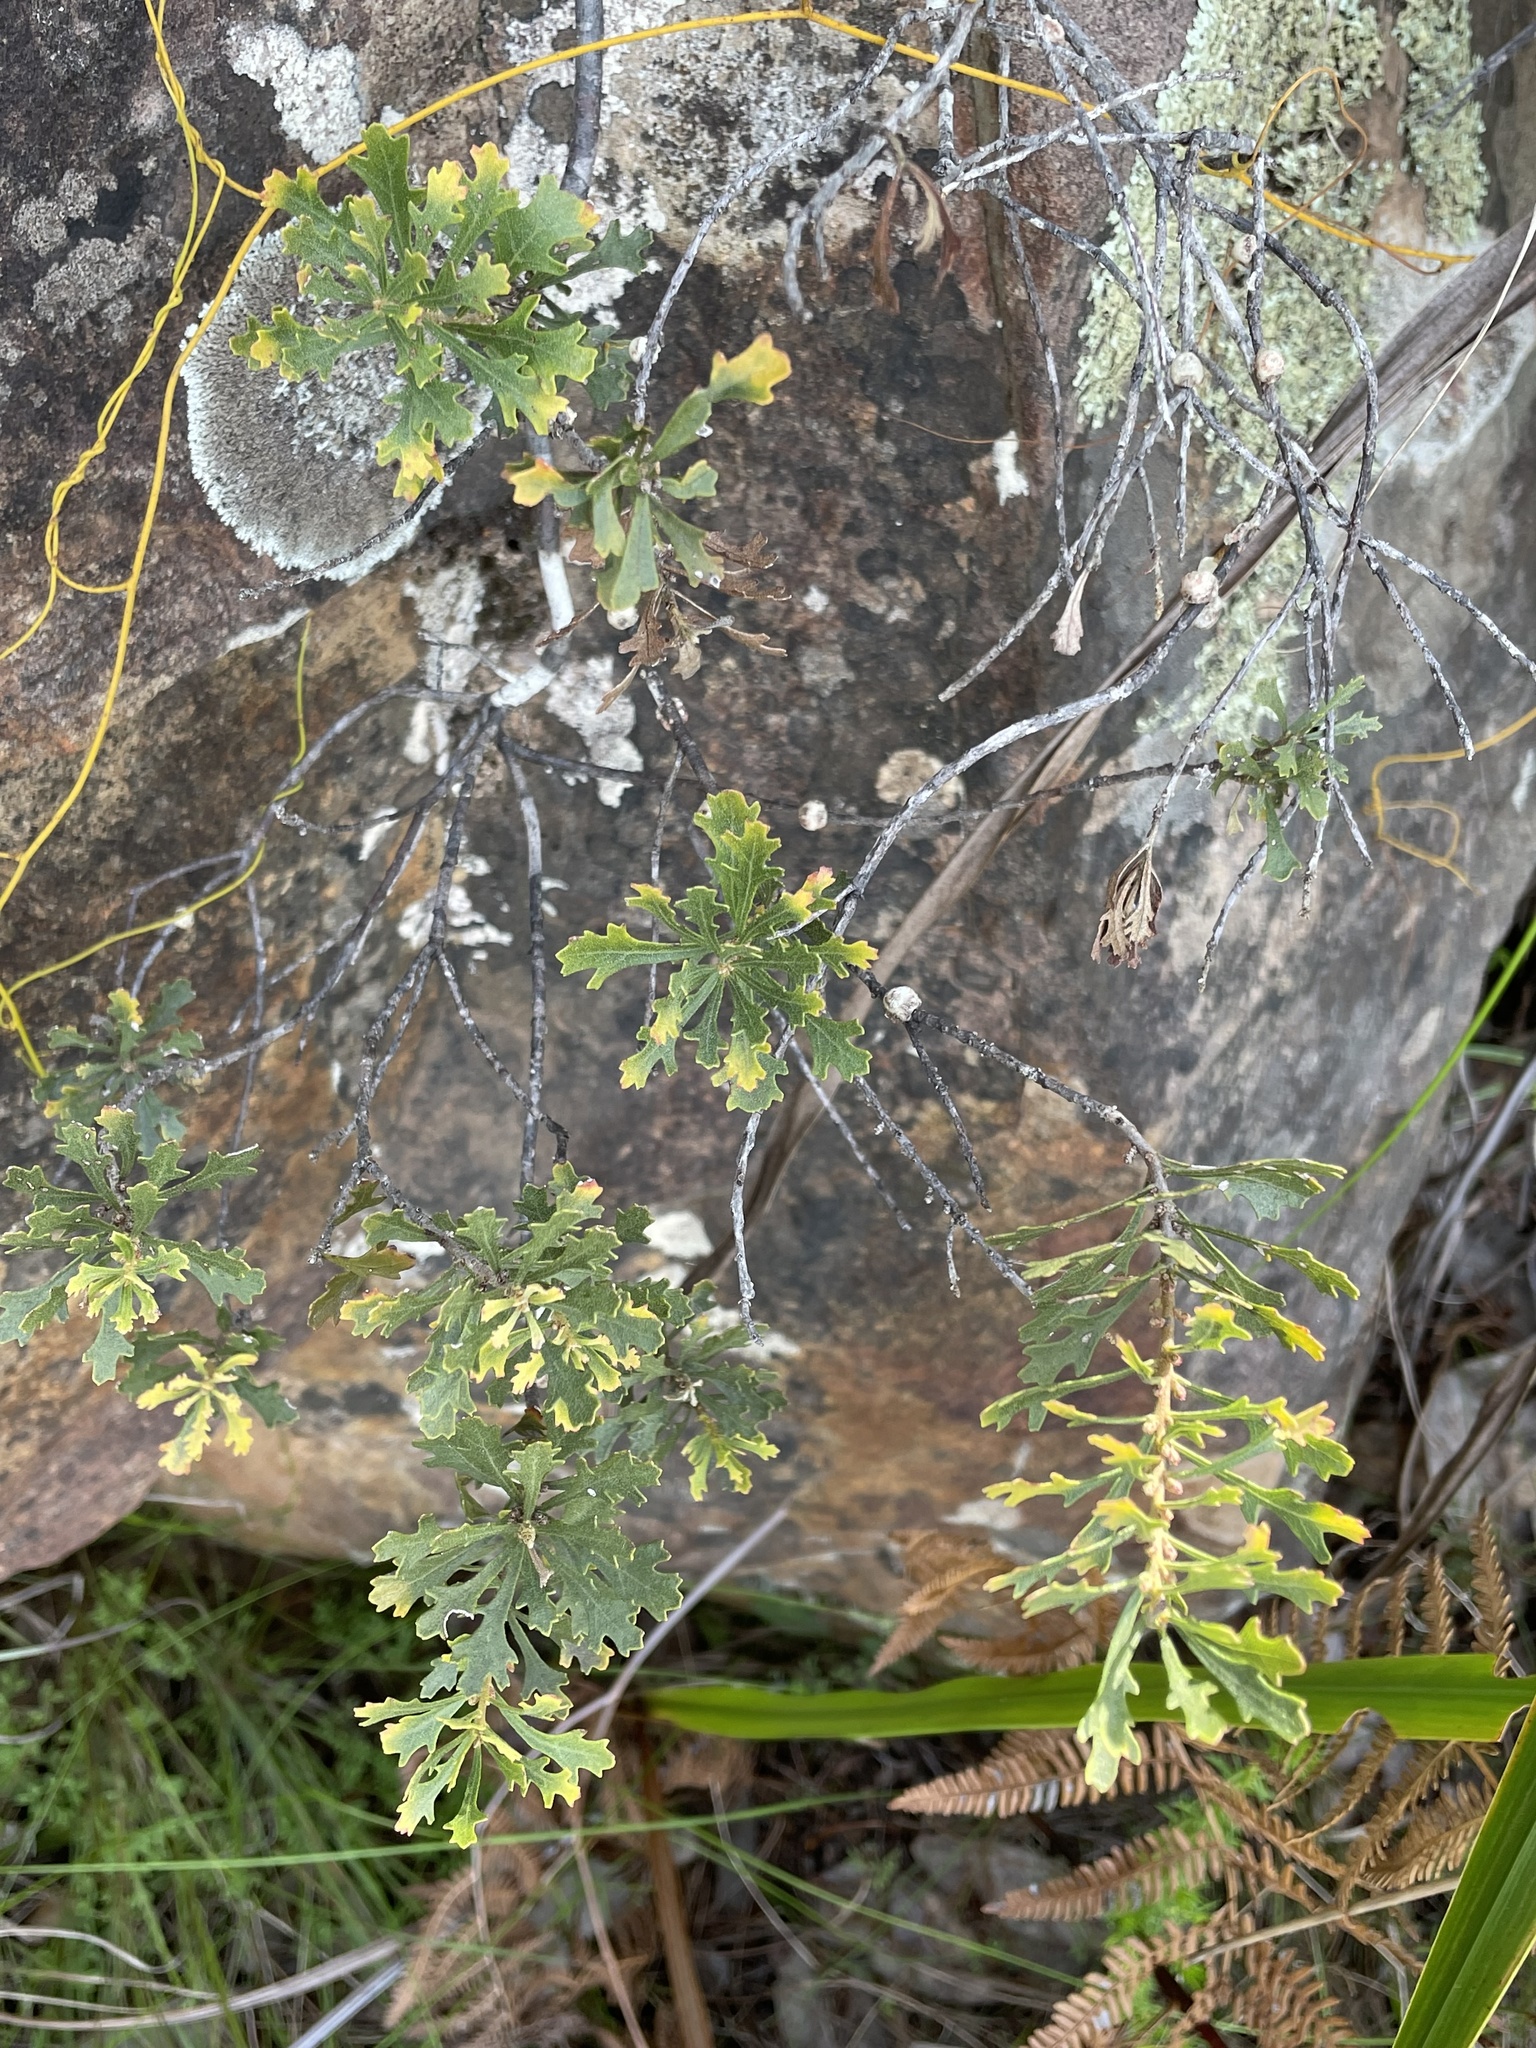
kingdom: Plantae
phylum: Tracheophyta
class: Magnoliopsida
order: Fagales
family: Myricaceae
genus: Morella
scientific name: Morella quercifolia
